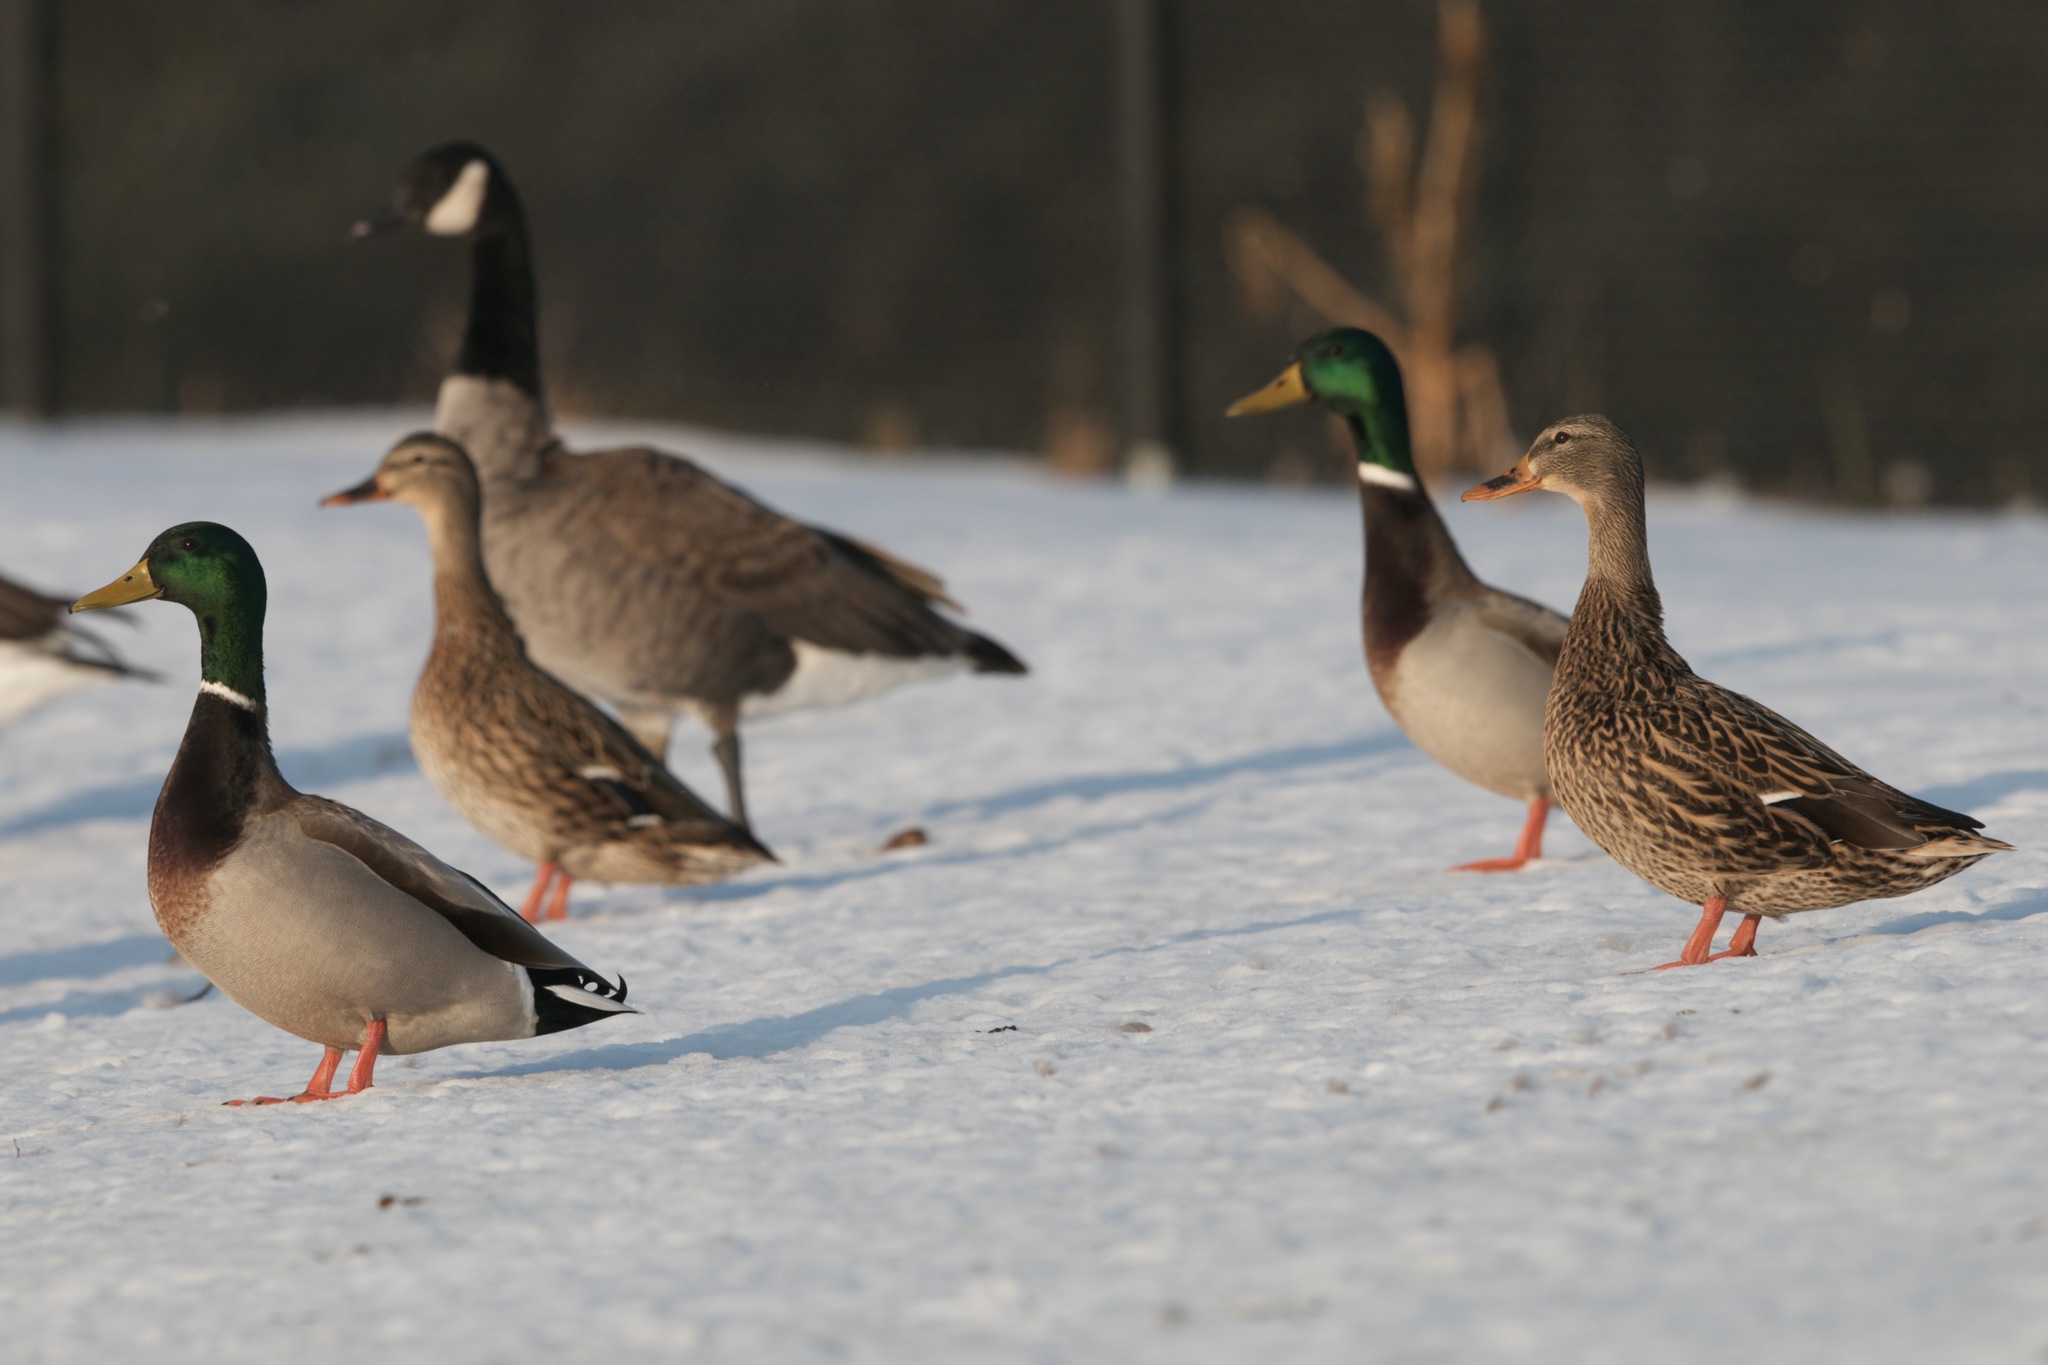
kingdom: Animalia
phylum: Chordata
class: Aves
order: Anseriformes
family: Anatidae
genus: Anas
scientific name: Anas platyrhynchos
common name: Mallard
